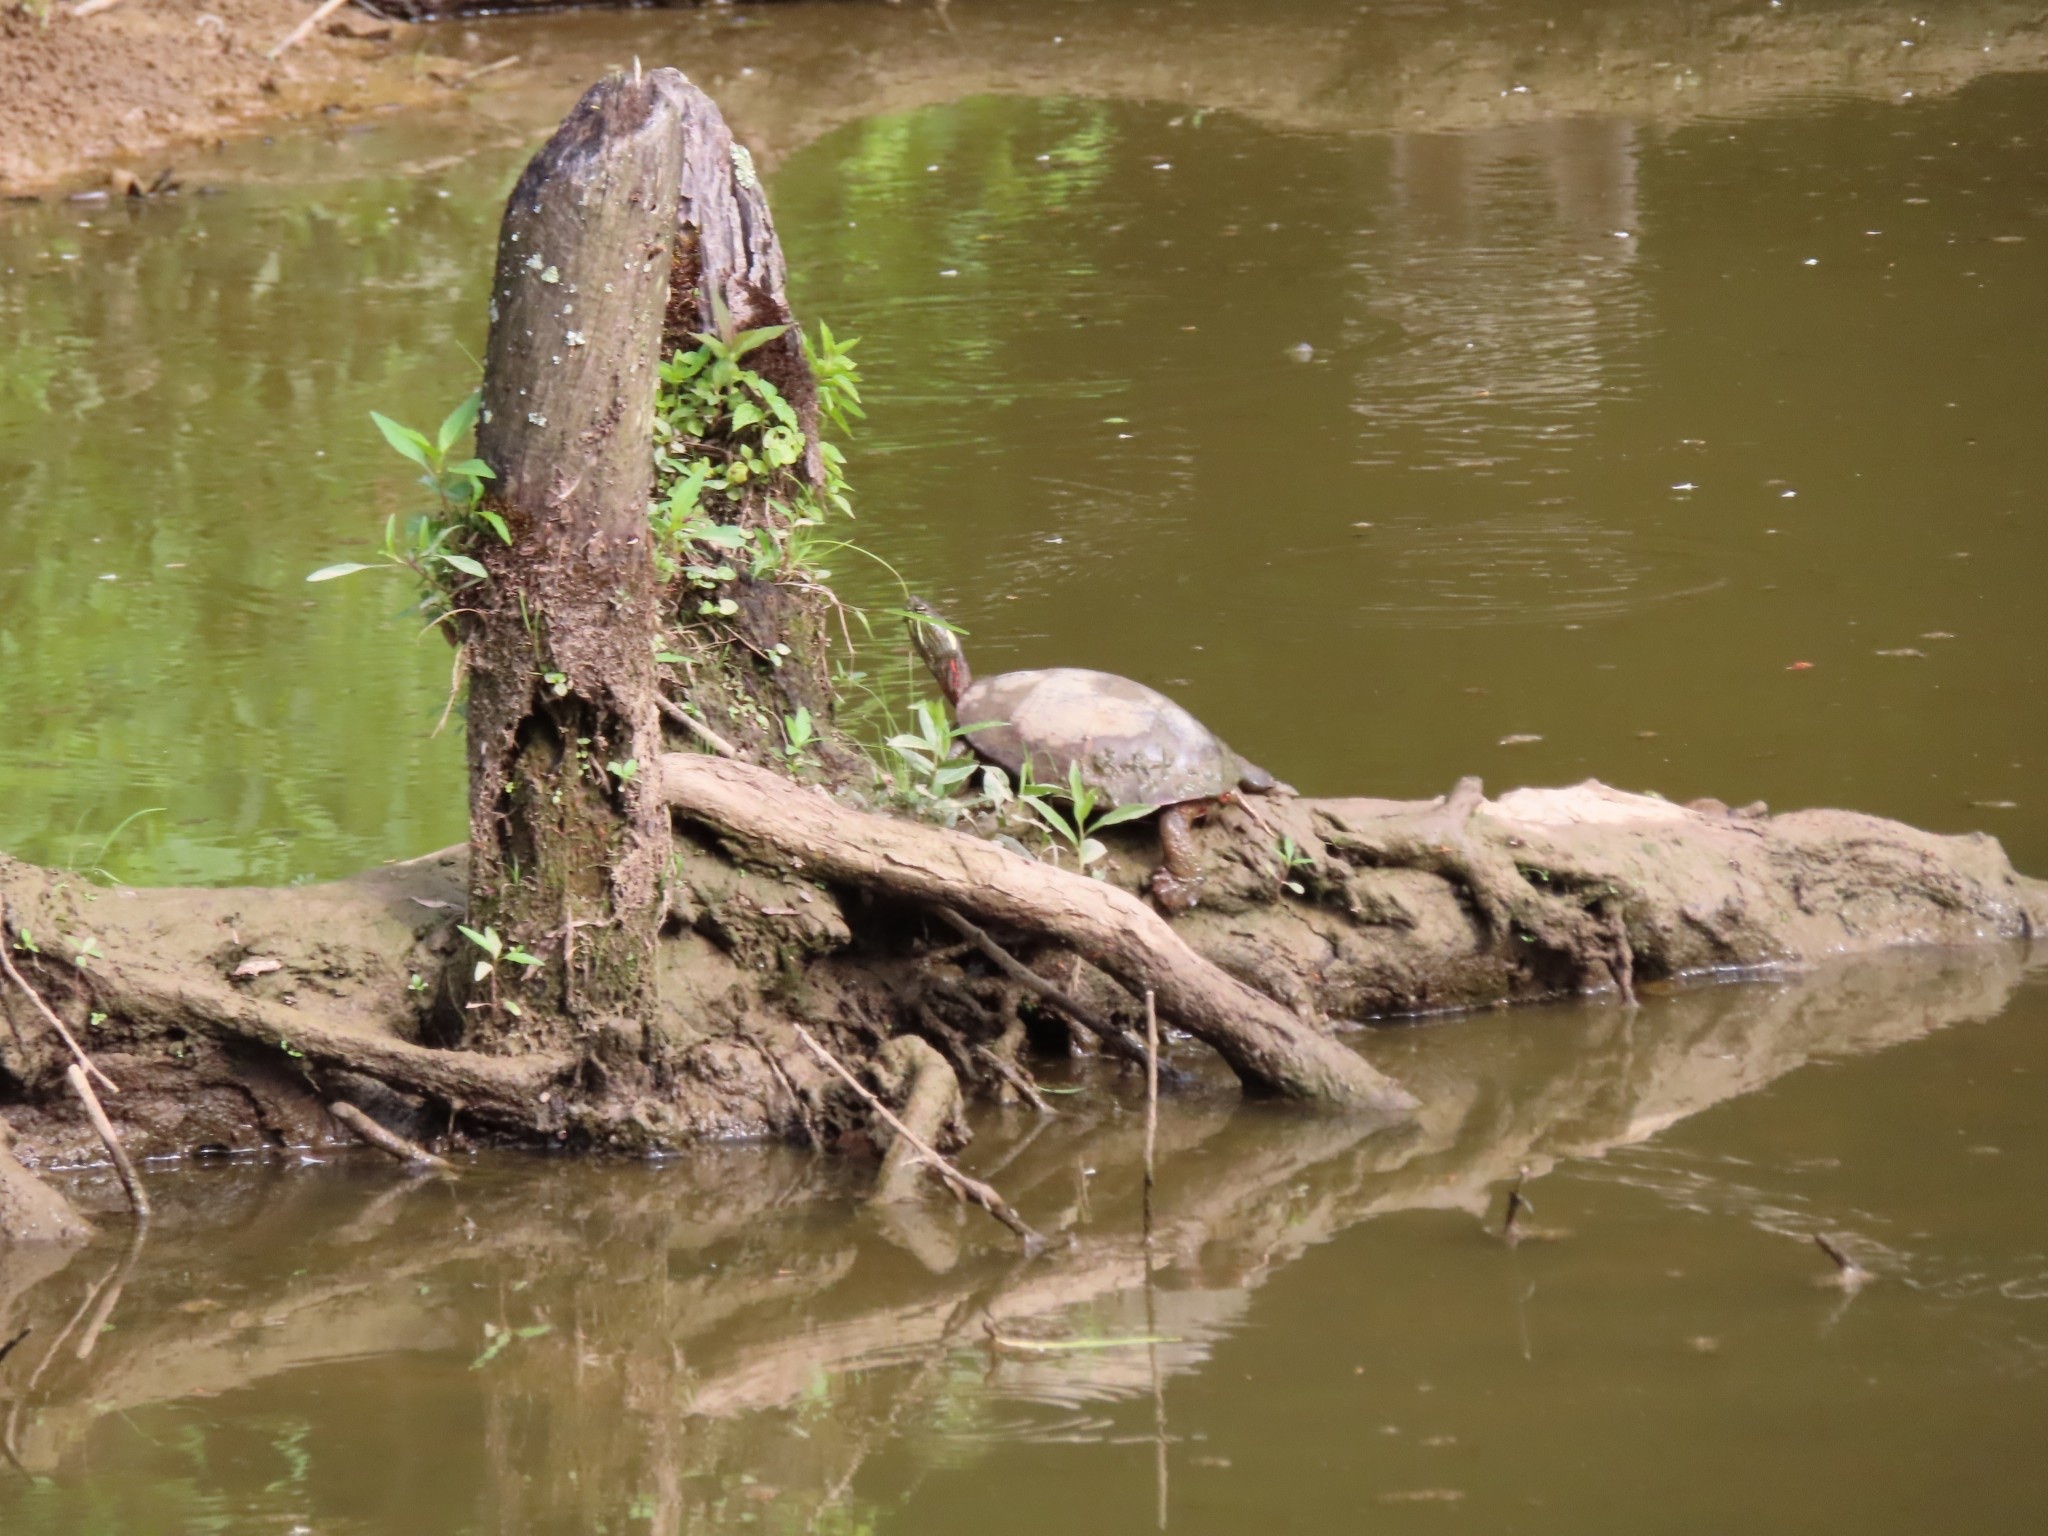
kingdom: Animalia
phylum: Chordata
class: Testudines
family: Emydidae
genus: Chrysemys
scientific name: Chrysemys picta
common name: Painted turtle
